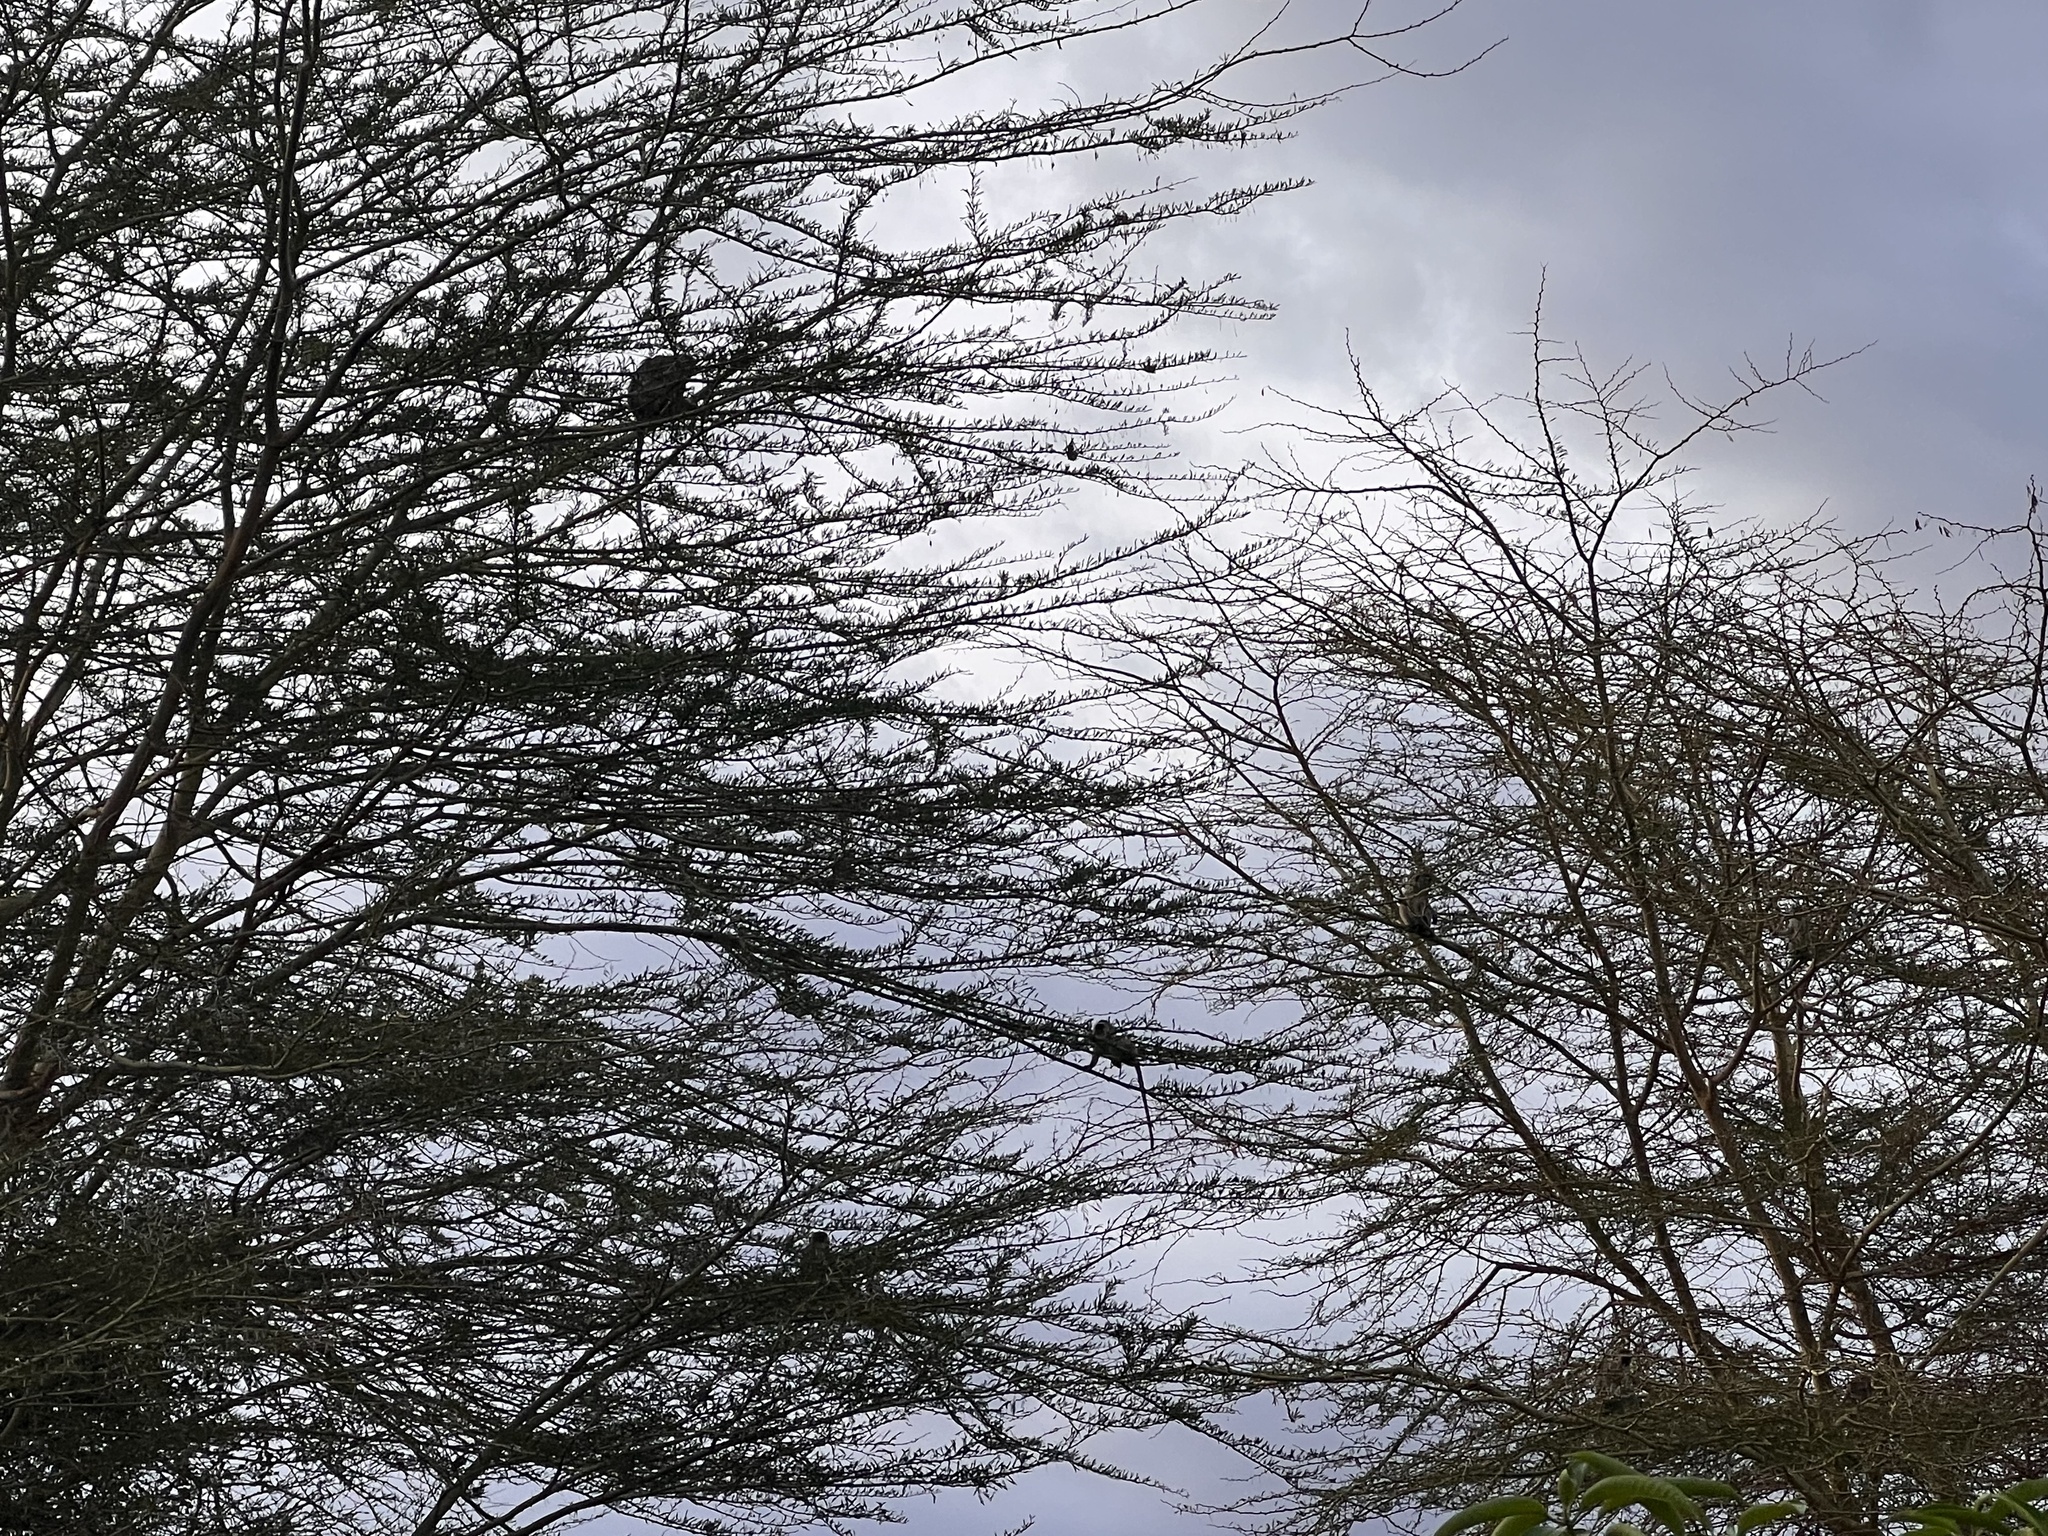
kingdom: Animalia
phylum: Chordata
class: Mammalia
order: Primates
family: Cercopithecidae
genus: Chlorocebus
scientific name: Chlorocebus pygerythrus
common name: Vervet monkey
